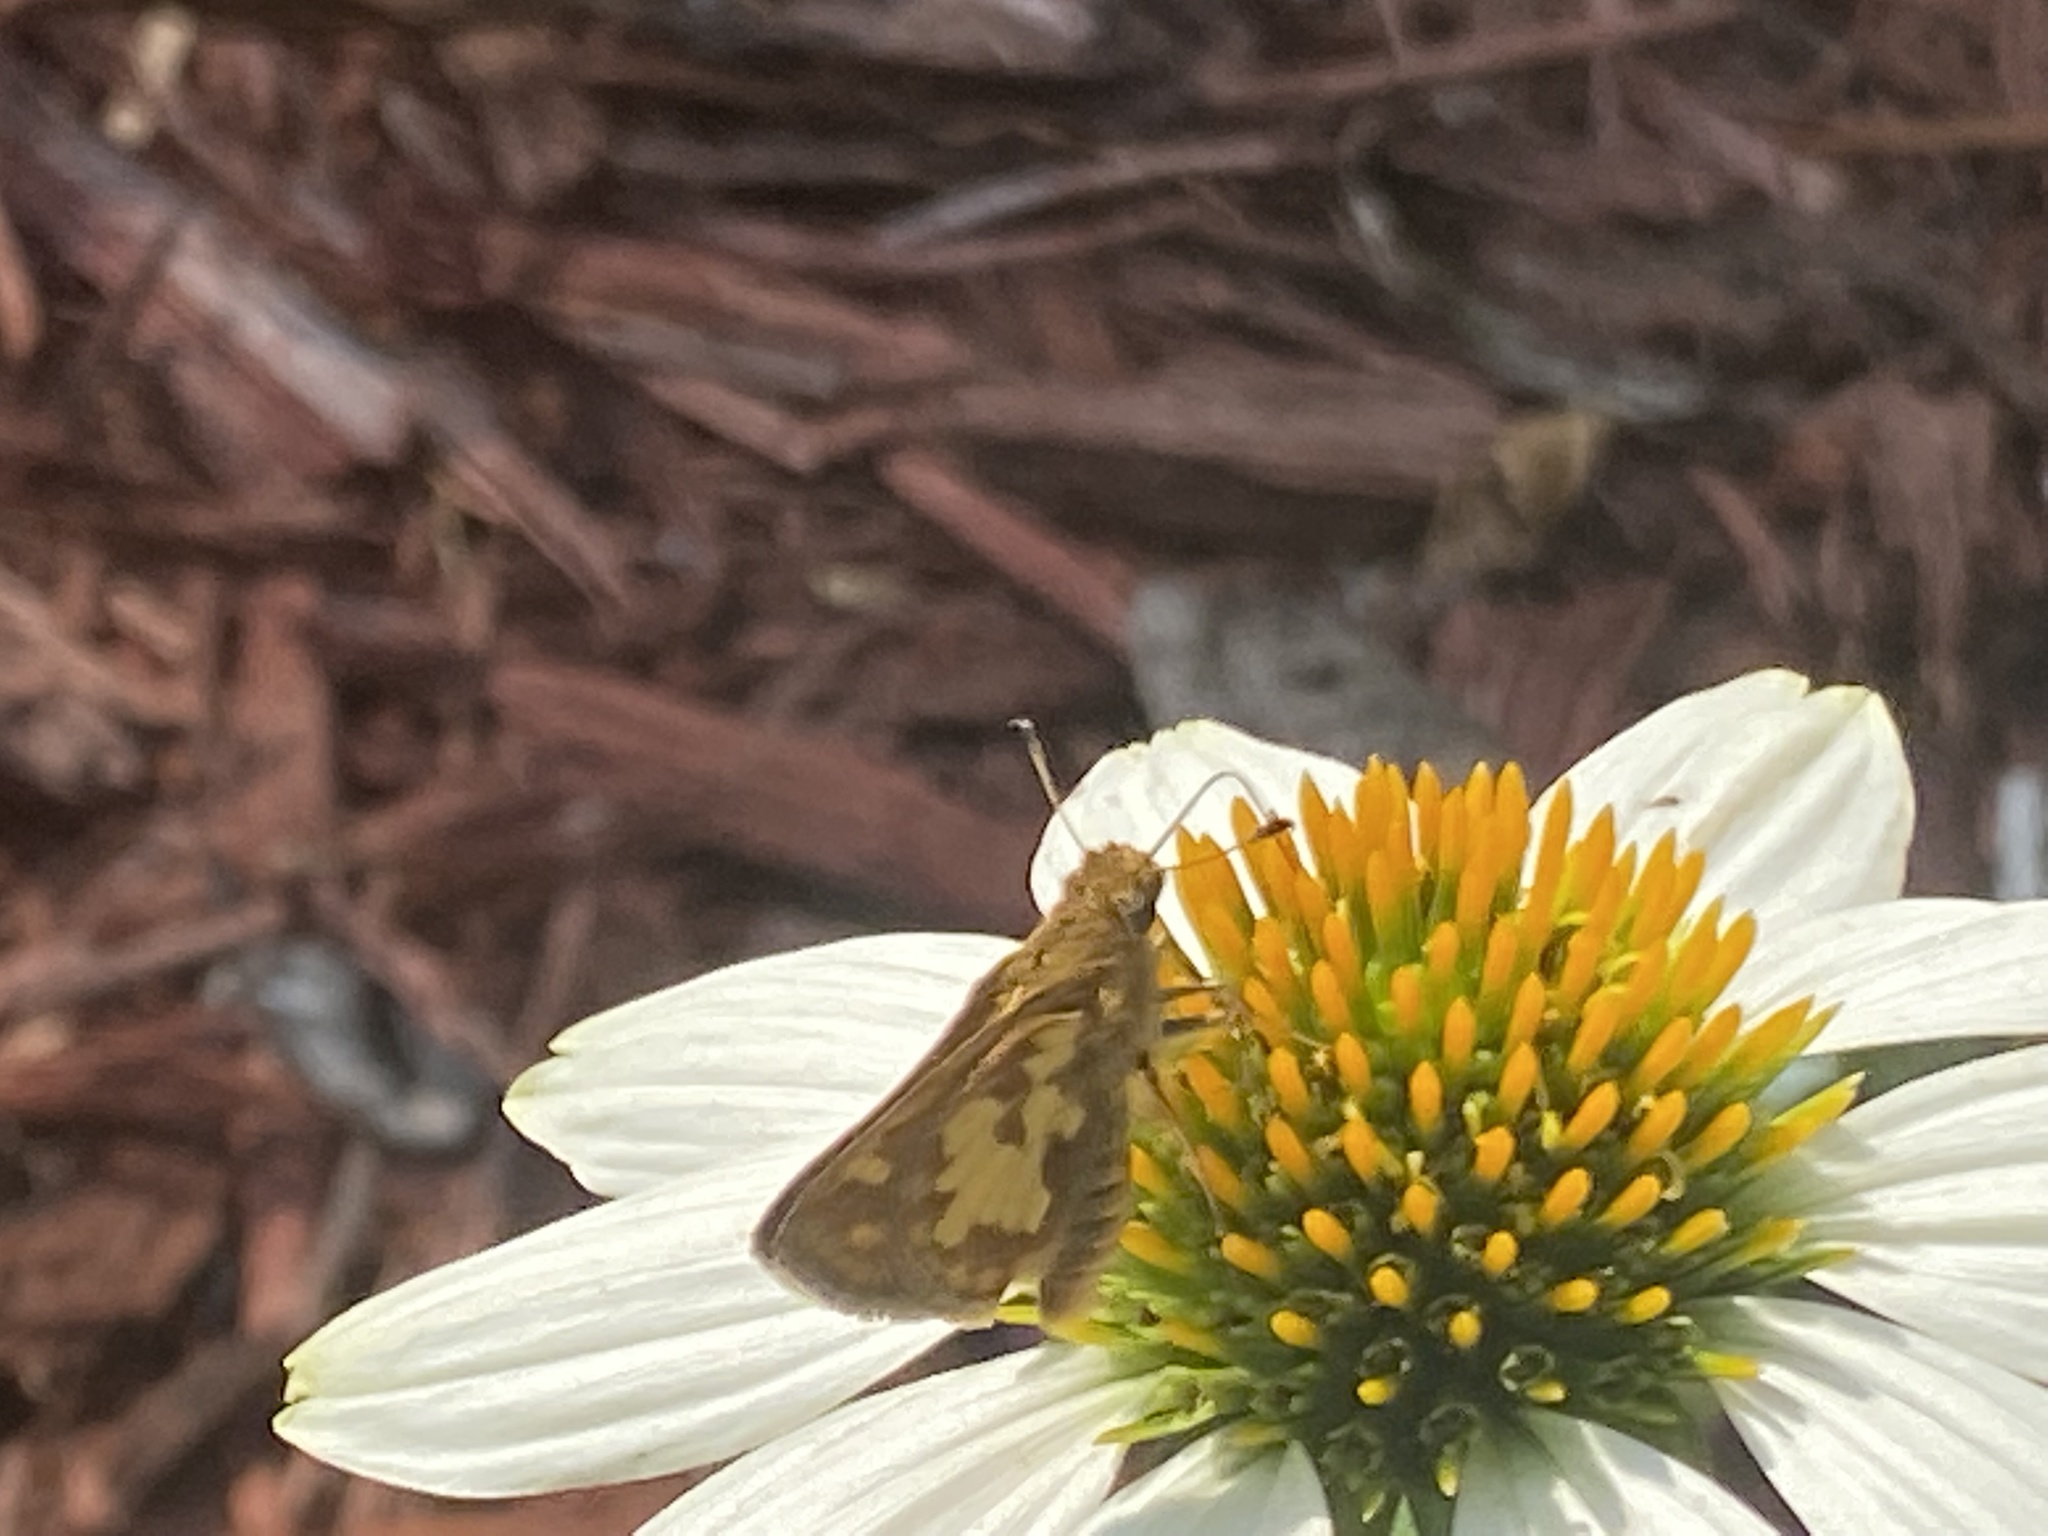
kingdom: Animalia
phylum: Arthropoda
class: Insecta
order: Lepidoptera
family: Hesperiidae
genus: Polites
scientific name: Polites coras
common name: Peck's skipper
